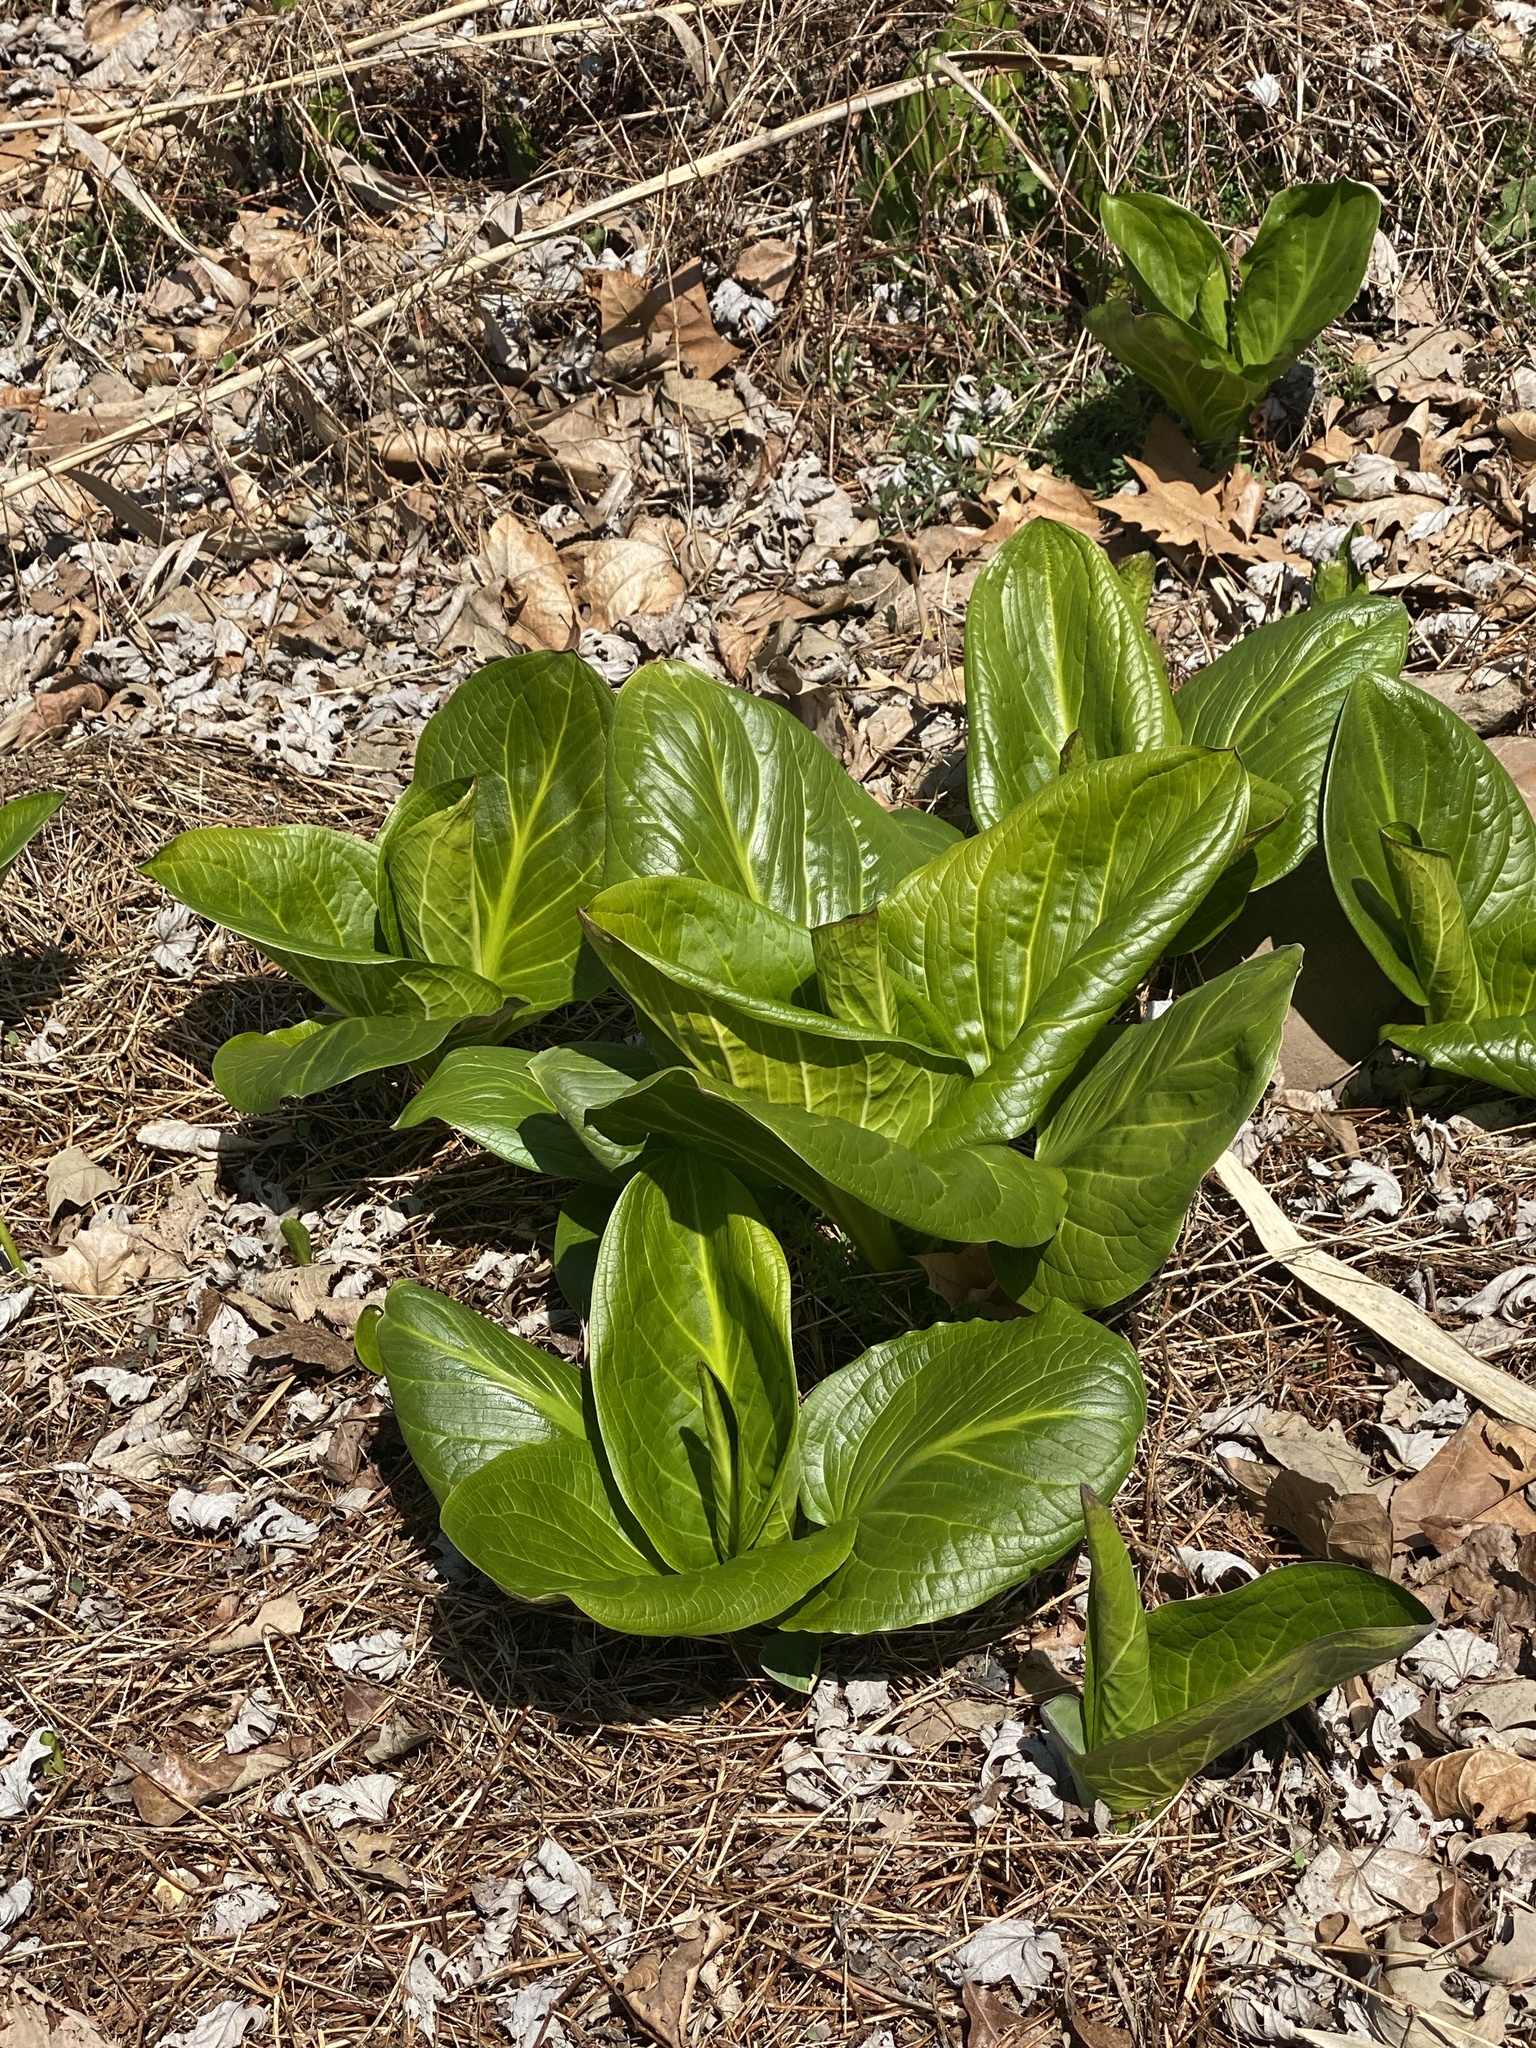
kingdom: Plantae
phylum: Tracheophyta
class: Liliopsida
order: Alismatales
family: Araceae
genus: Symplocarpus
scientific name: Symplocarpus foetidus
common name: Eastern skunk cabbage
